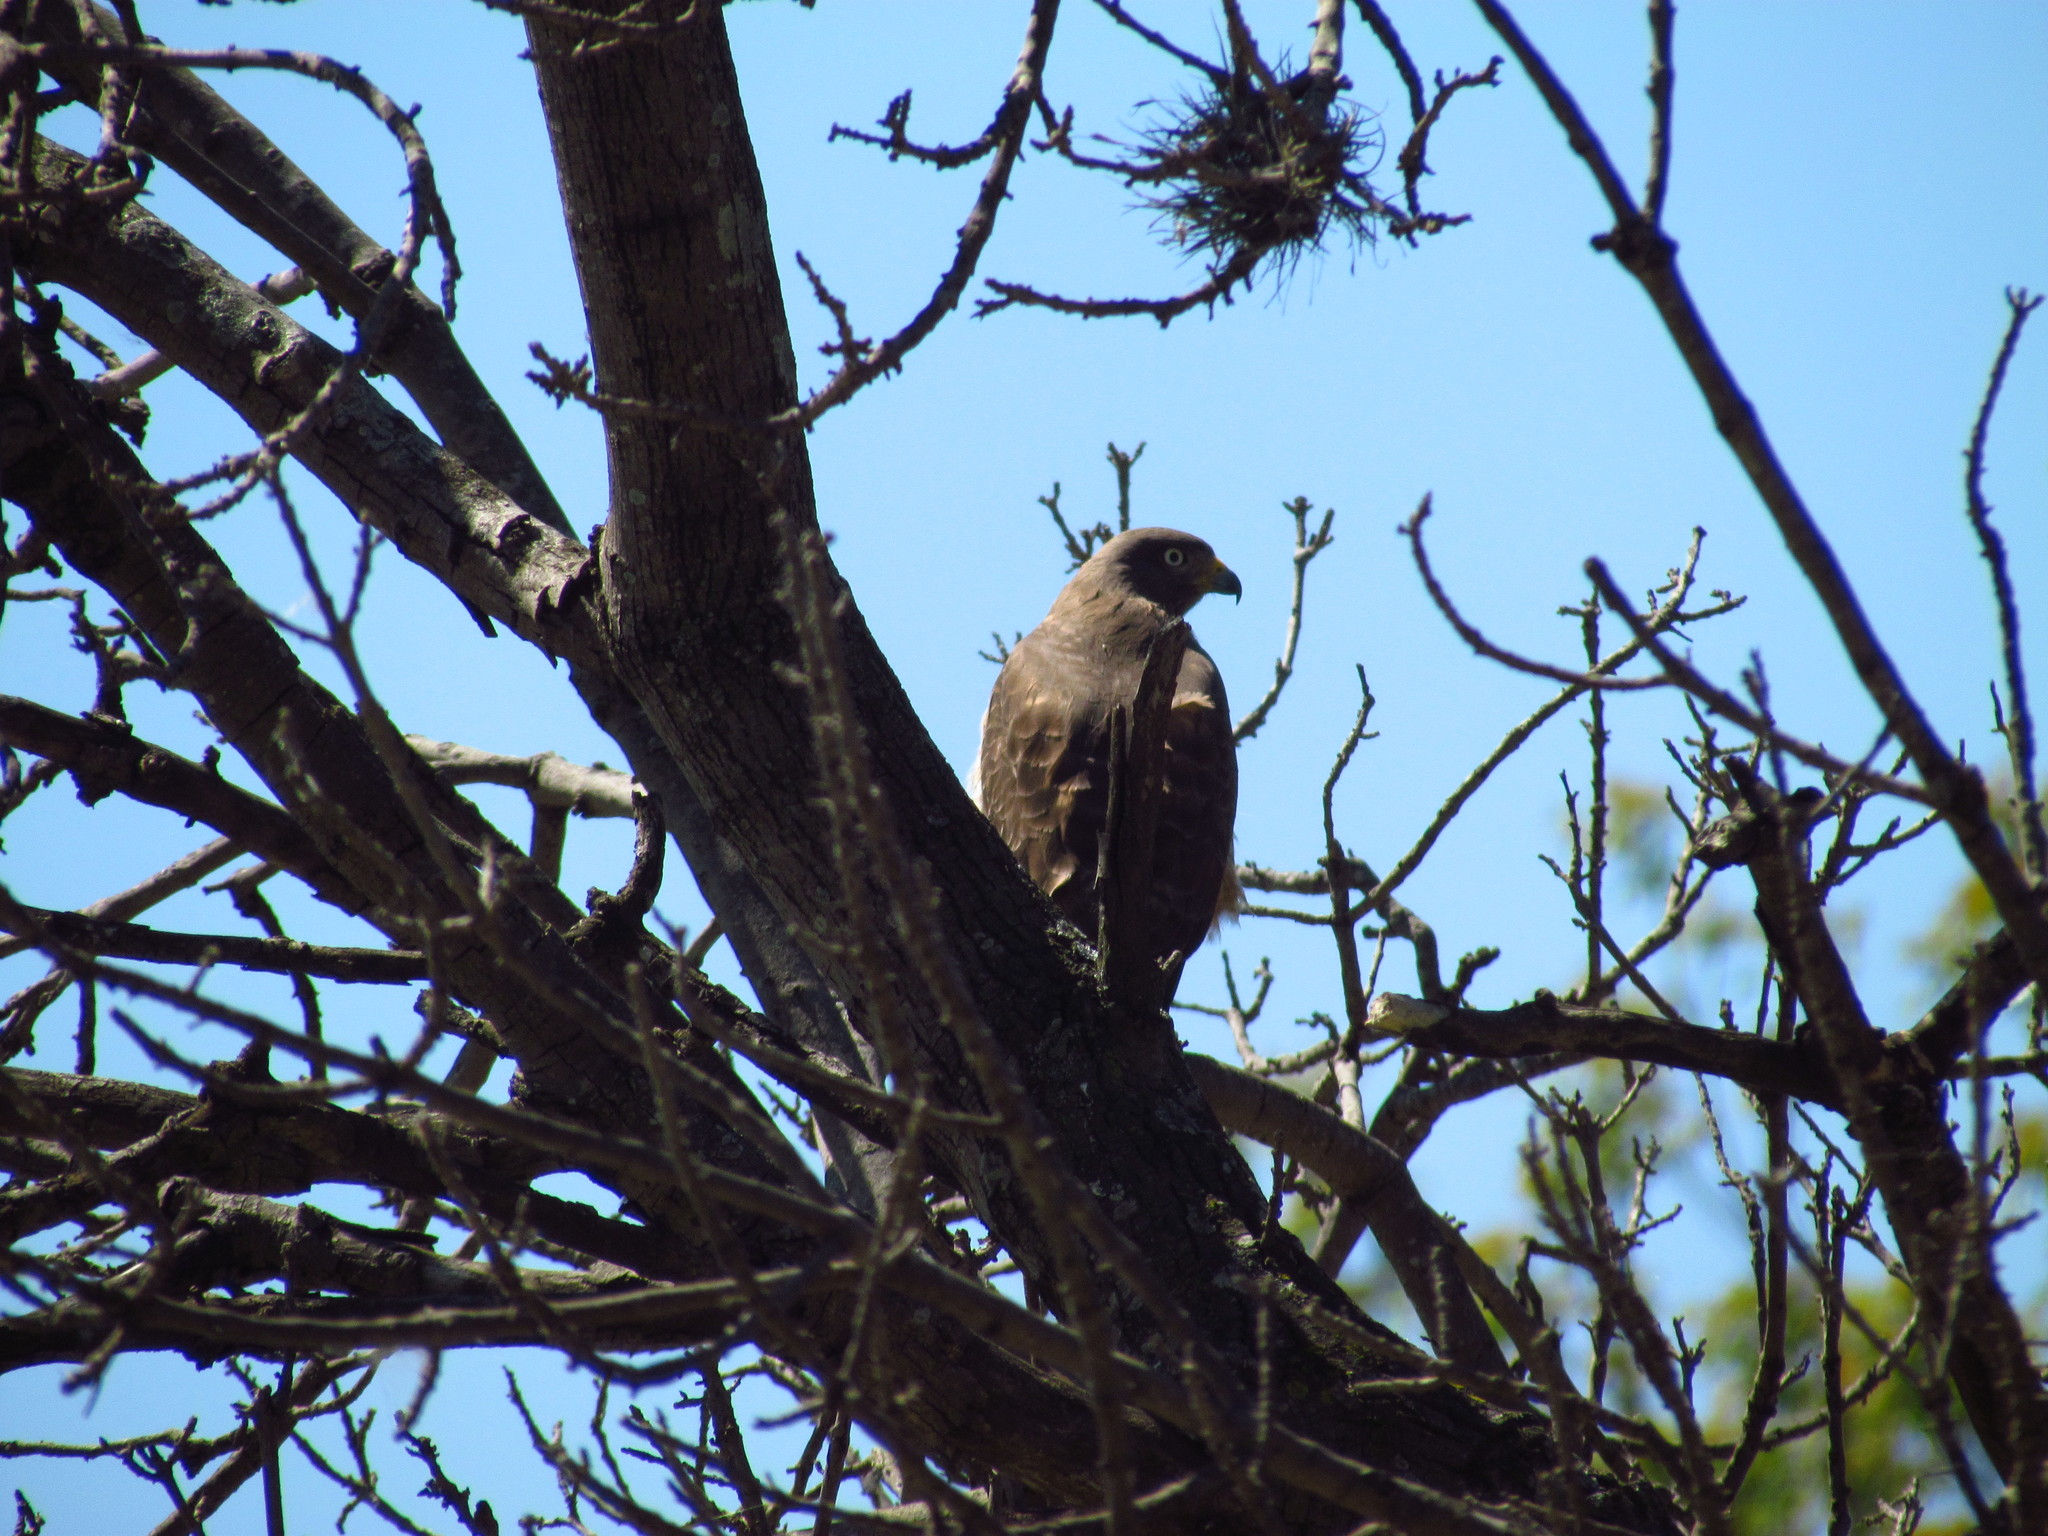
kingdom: Animalia
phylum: Chordata
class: Aves
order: Accipitriformes
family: Accipitridae
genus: Rupornis
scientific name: Rupornis magnirostris
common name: Roadside hawk
